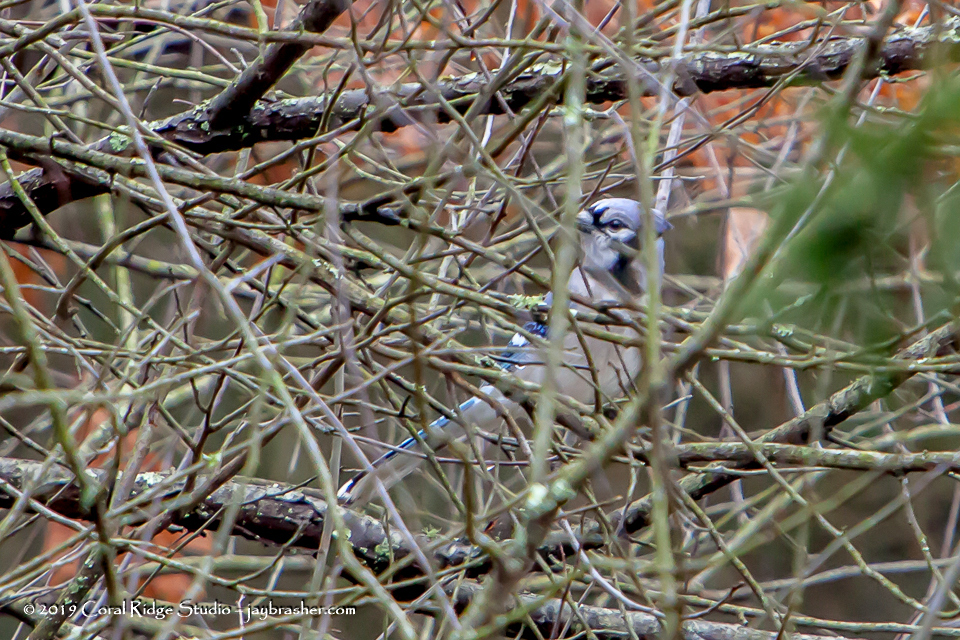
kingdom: Animalia
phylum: Chordata
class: Aves
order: Passeriformes
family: Corvidae
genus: Cyanocitta
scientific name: Cyanocitta cristata
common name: Blue jay
